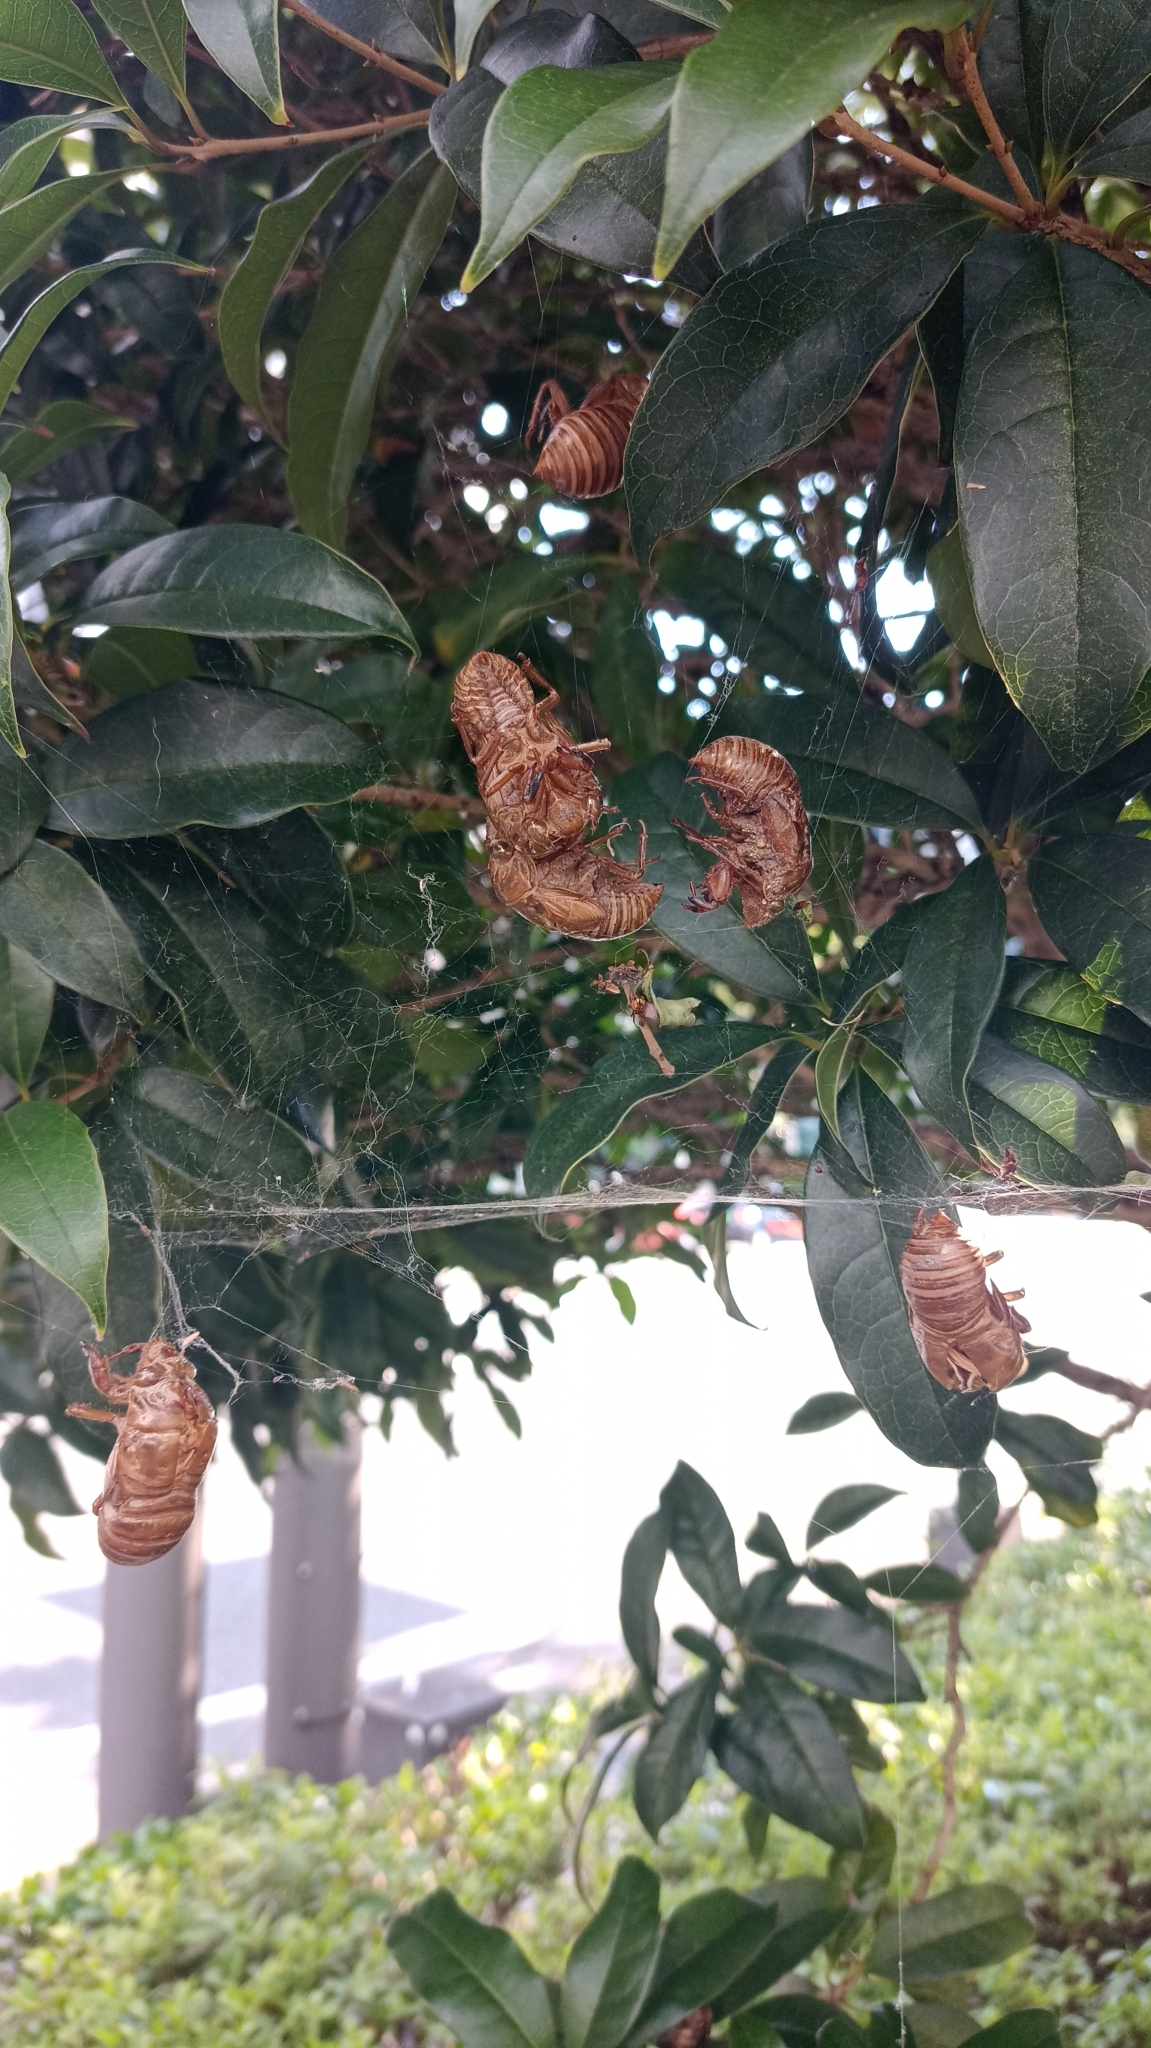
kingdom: Animalia
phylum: Arthropoda
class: Insecta
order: Hemiptera
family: Cicadidae
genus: Cryptotympana
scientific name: Cryptotympana facialis
